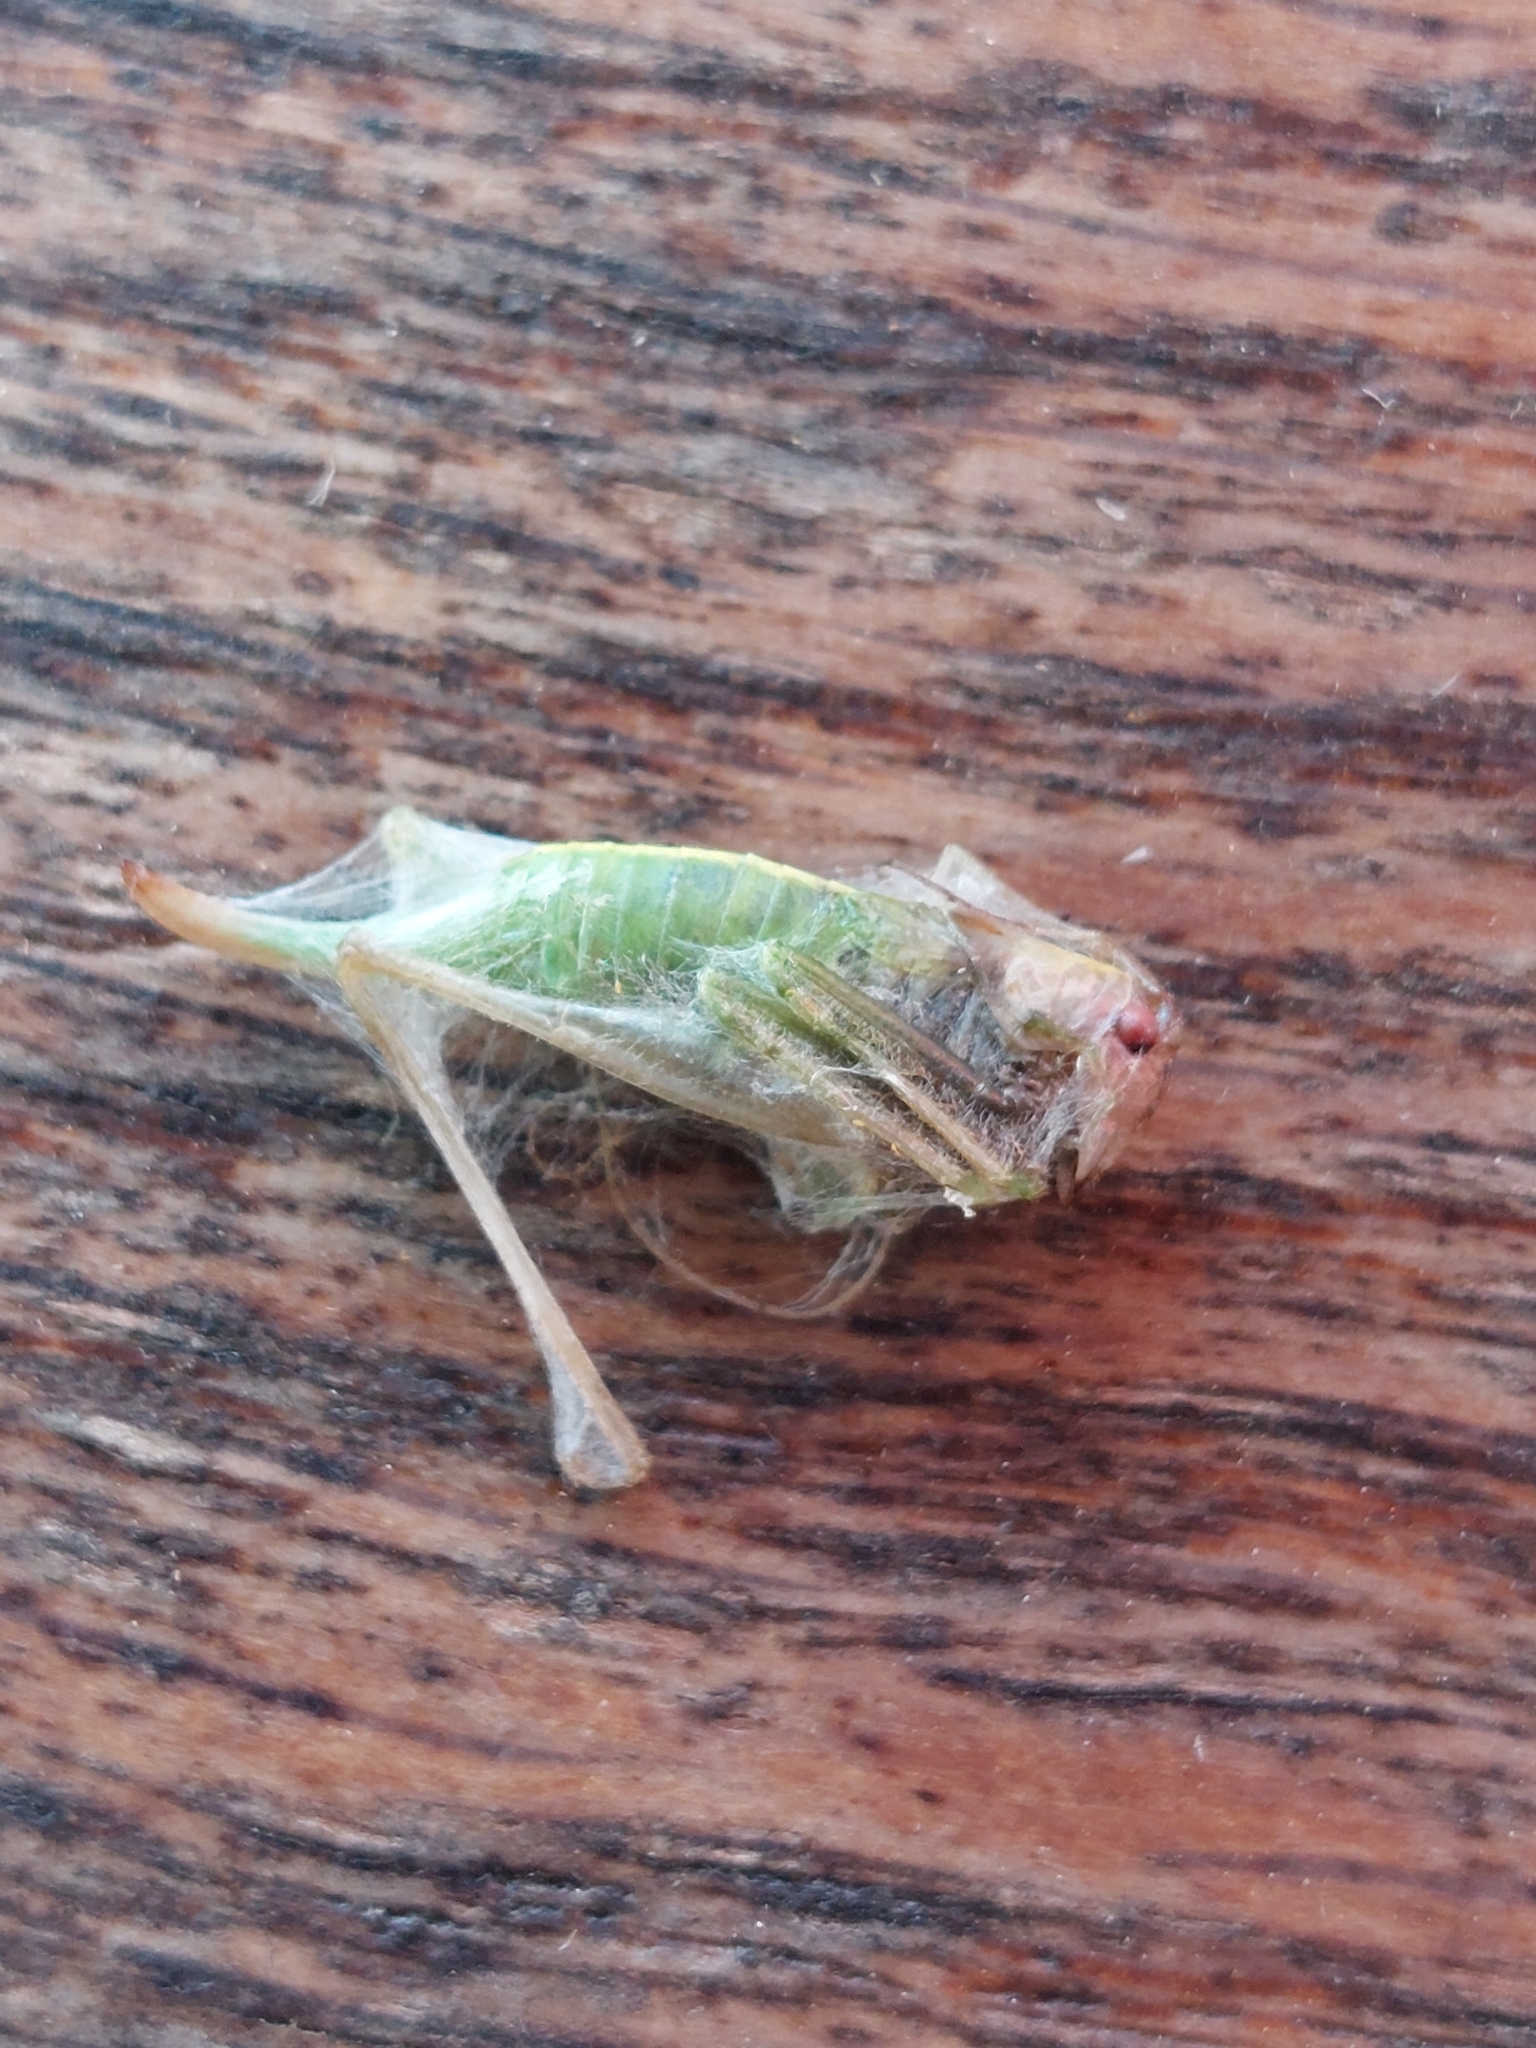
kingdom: Animalia
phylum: Arthropoda
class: Insecta
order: Orthoptera
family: Tettigoniidae
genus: Meconema
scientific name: Meconema meridionale
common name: Southern oak bush-cricket
